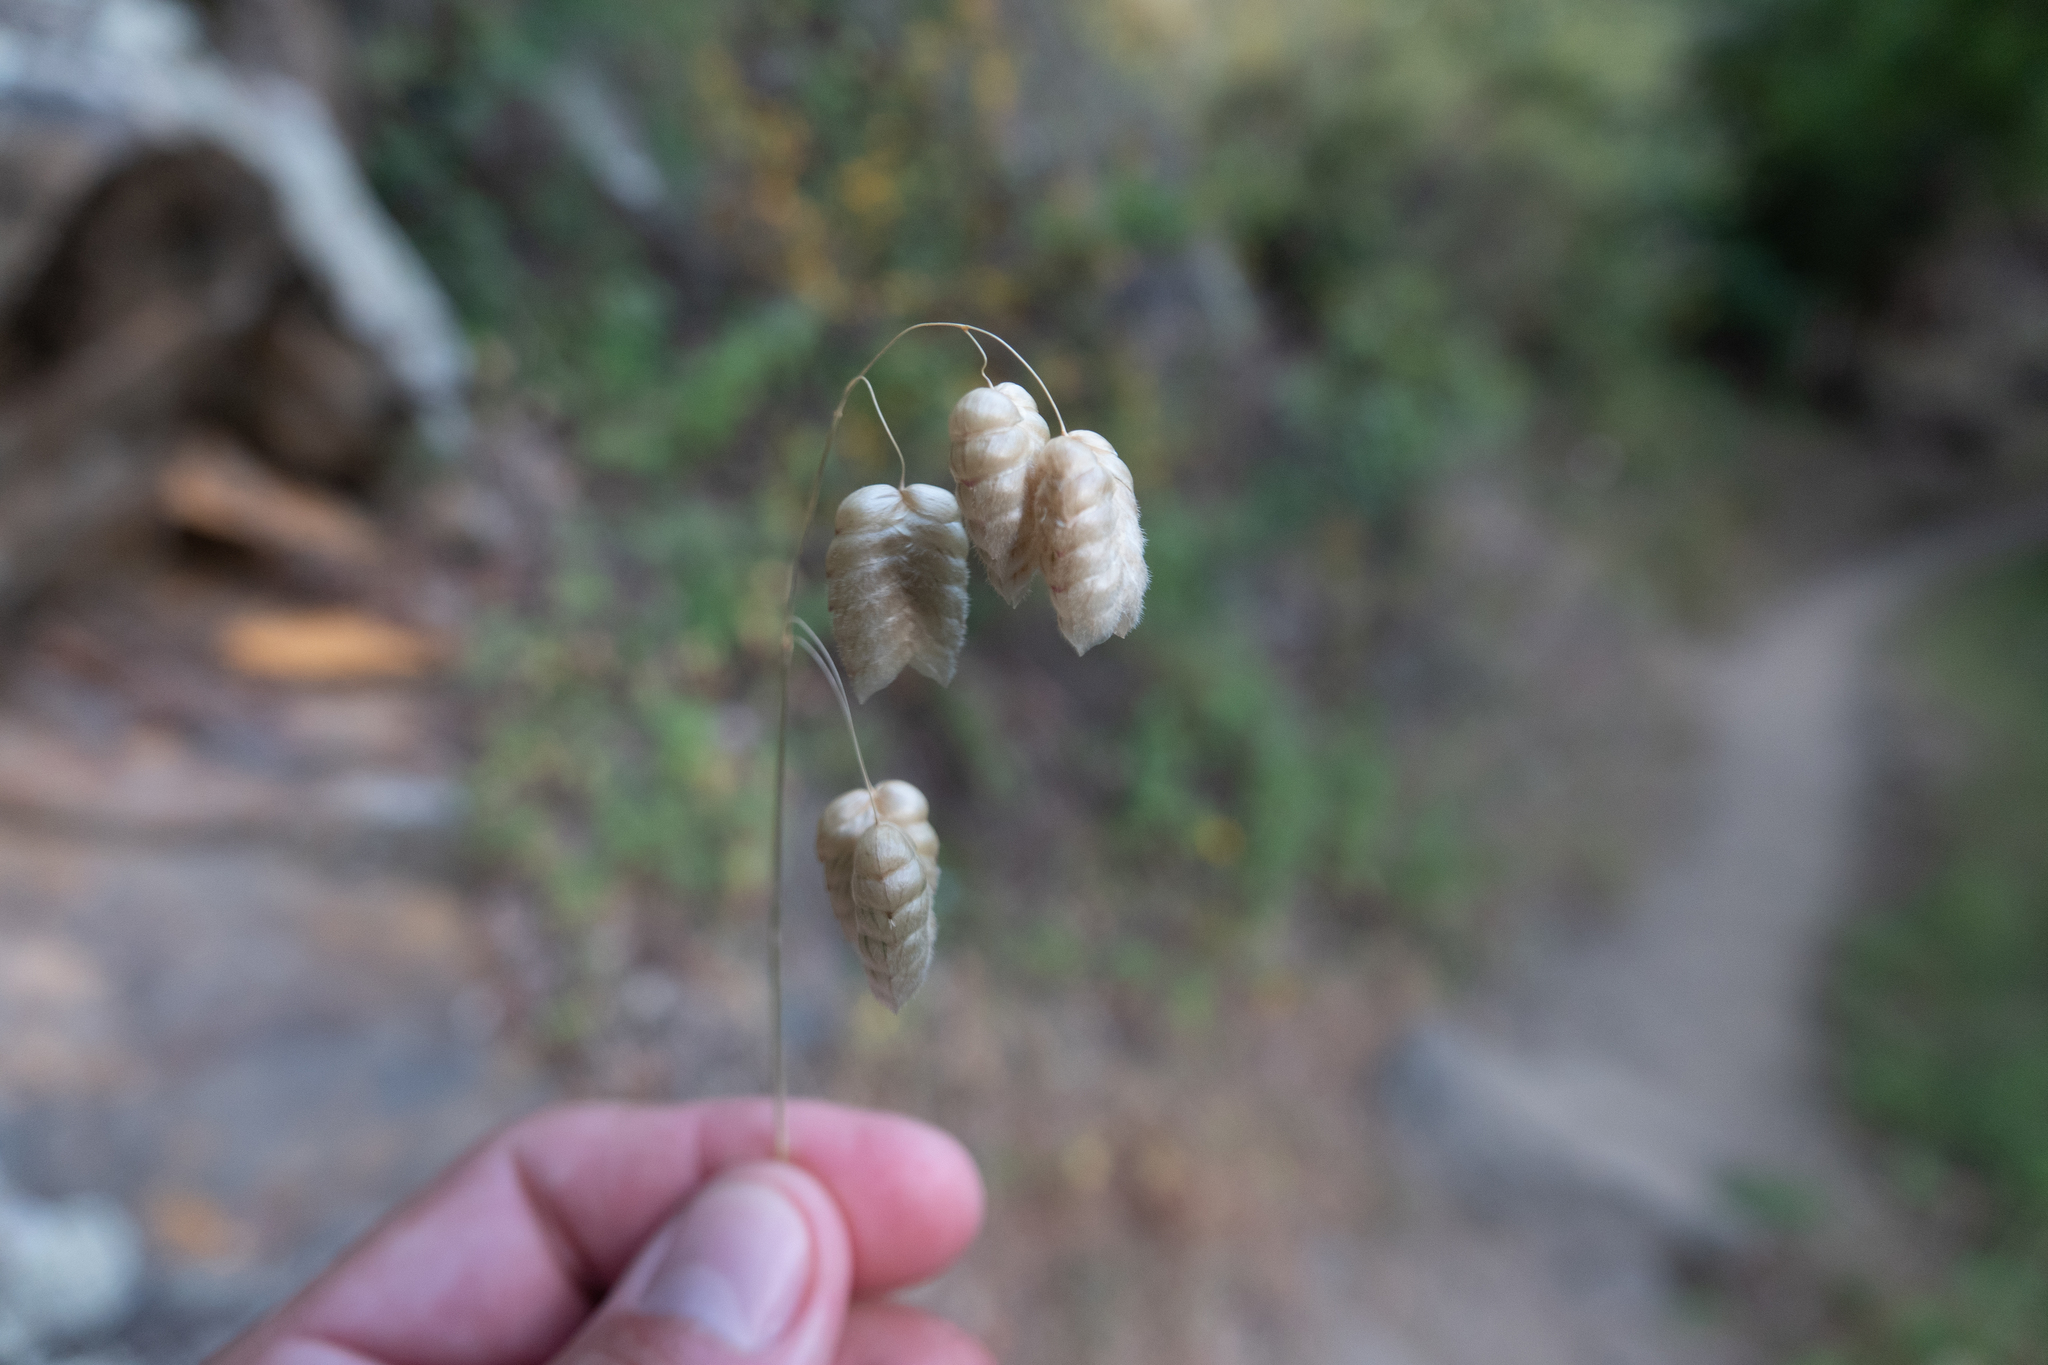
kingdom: Plantae
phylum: Tracheophyta
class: Liliopsida
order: Poales
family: Poaceae
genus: Briza
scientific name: Briza maxima
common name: Big quakinggrass
